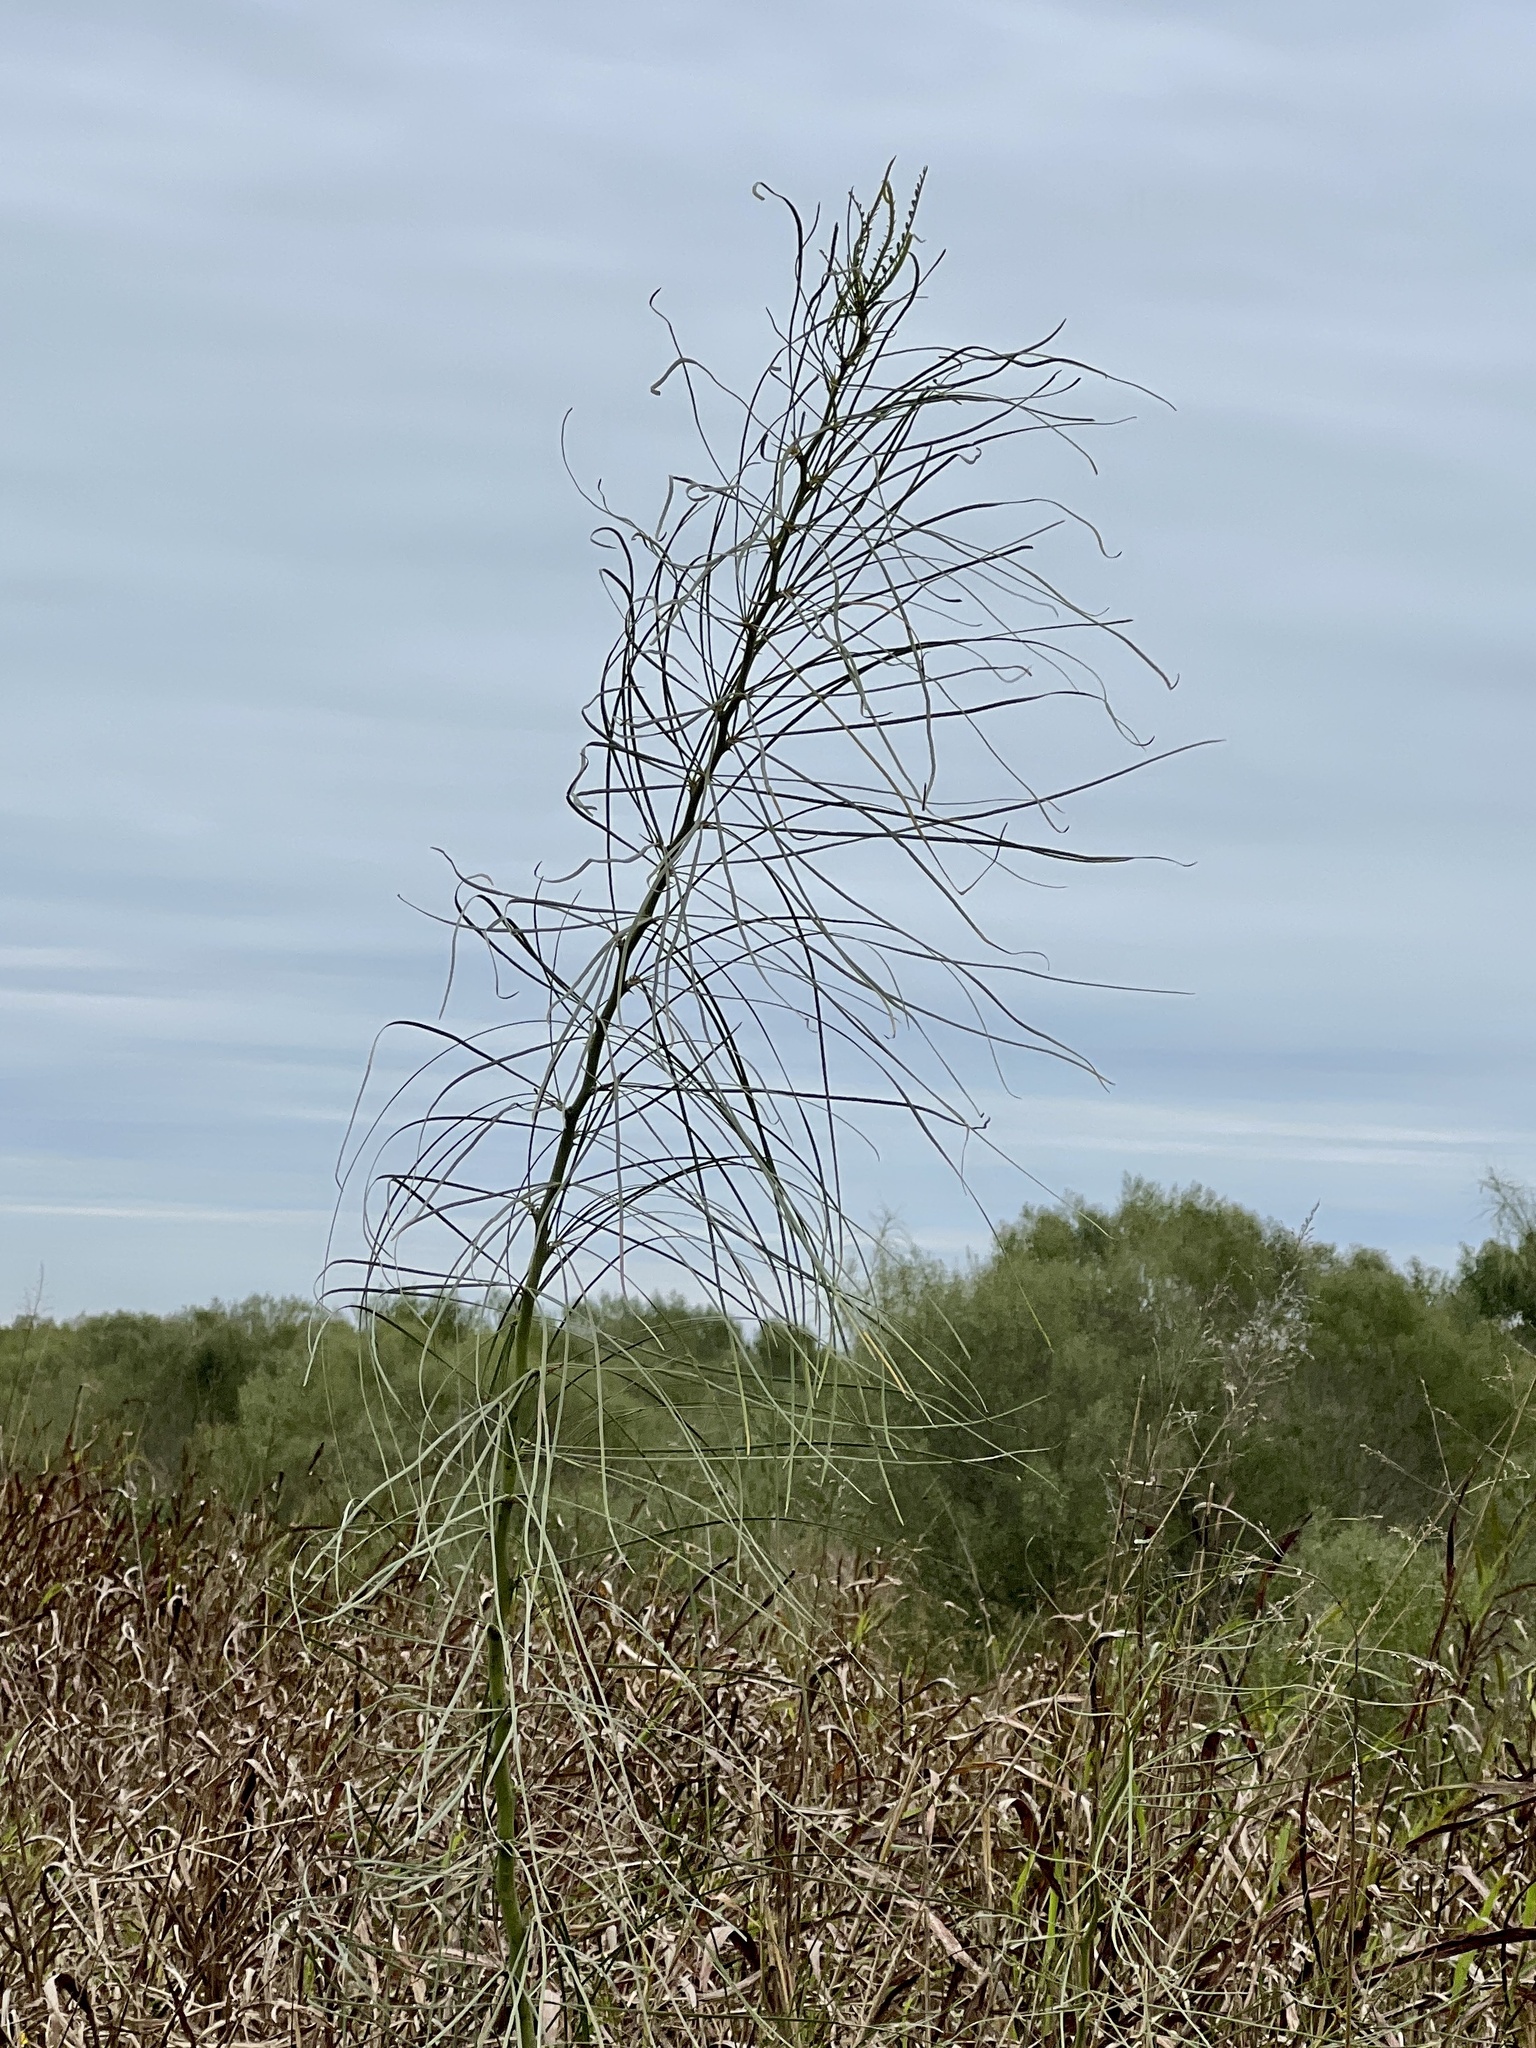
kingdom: Plantae
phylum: Tracheophyta
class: Magnoliopsida
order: Fabales
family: Fabaceae
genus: Parkinsonia
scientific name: Parkinsonia aculeata
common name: Jerusalem thorn
